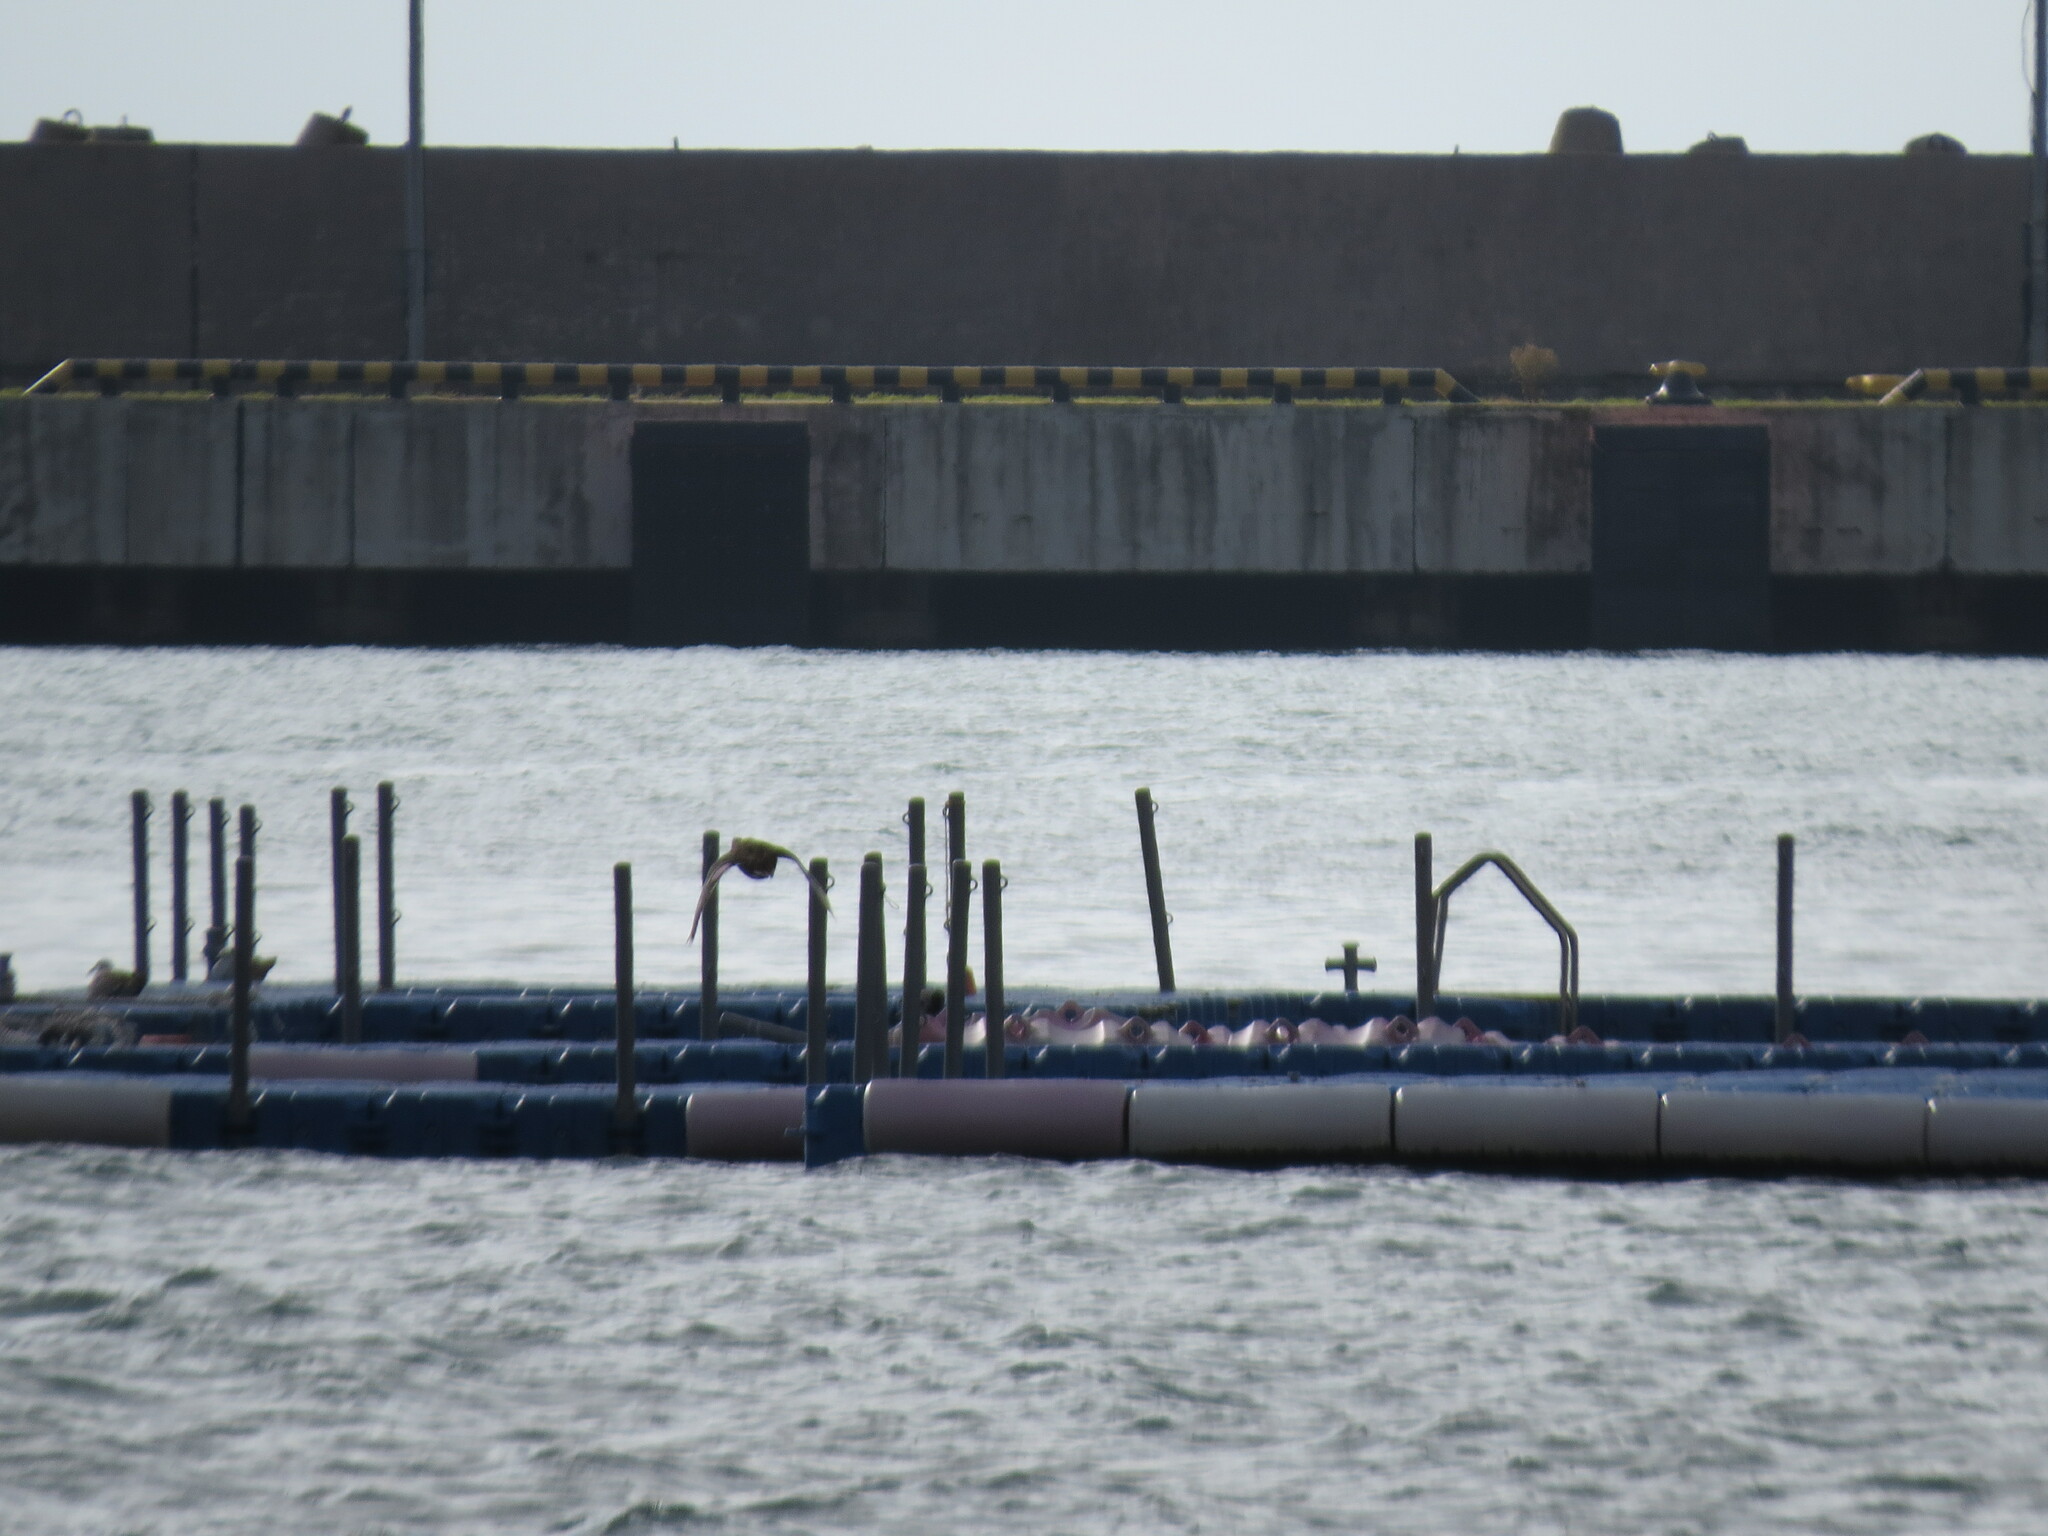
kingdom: Animalia
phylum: Chordata
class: Aves
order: Anseriformes
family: Anatidae
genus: Anas
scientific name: Anas platyrhynchos
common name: Mallard
